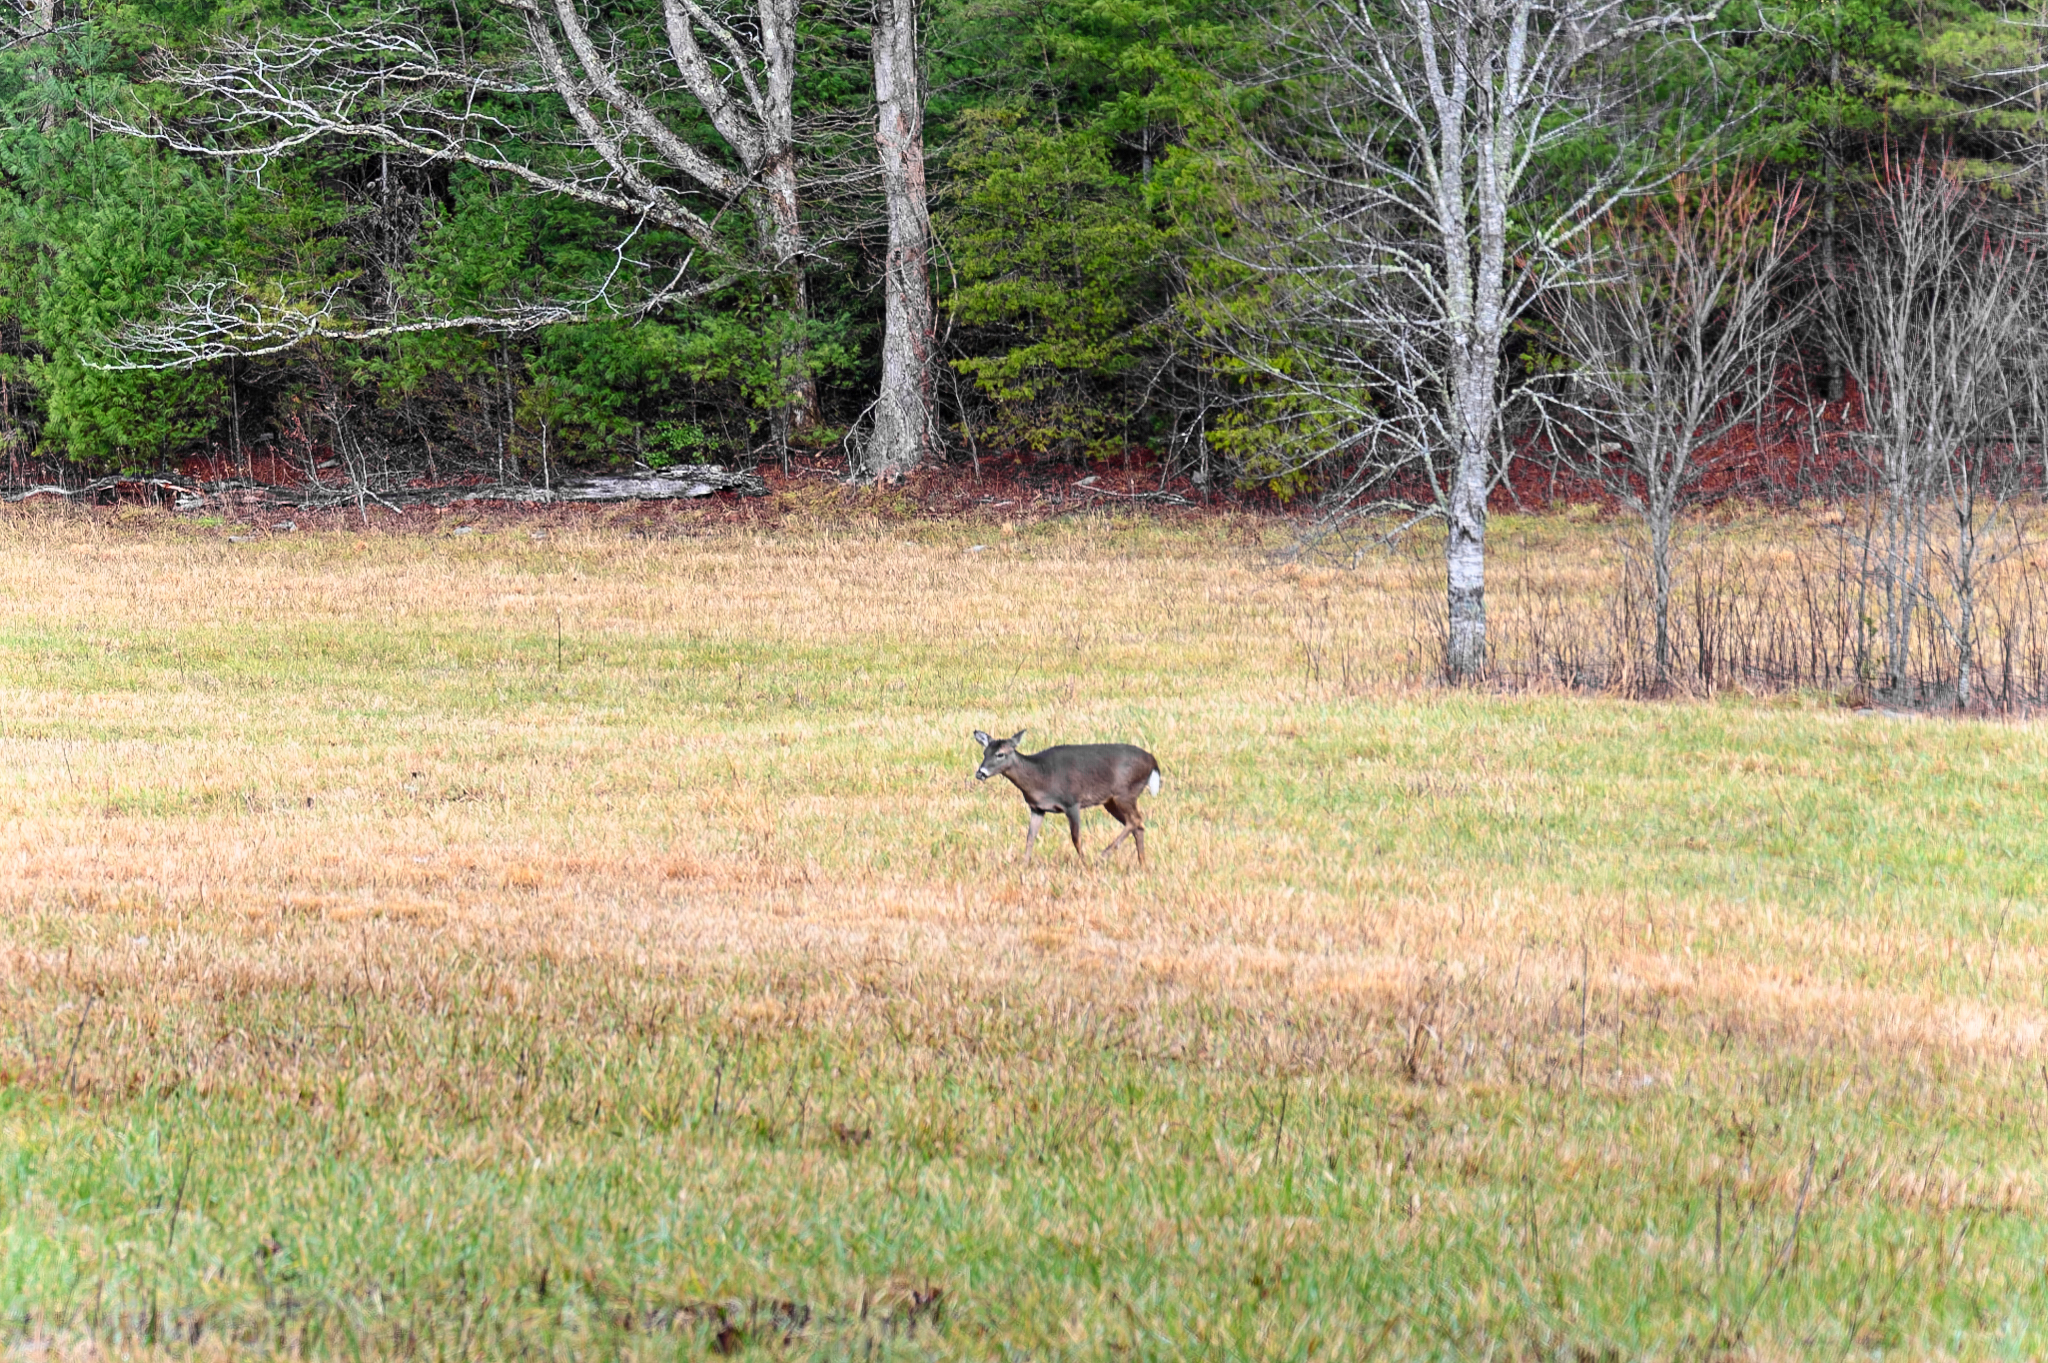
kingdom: Animalia
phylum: Chordata
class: Mammalia
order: Artiodactyla
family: Cervidae
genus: Odocoileus
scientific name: Odocoileus virginianus
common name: White-tailed deer
